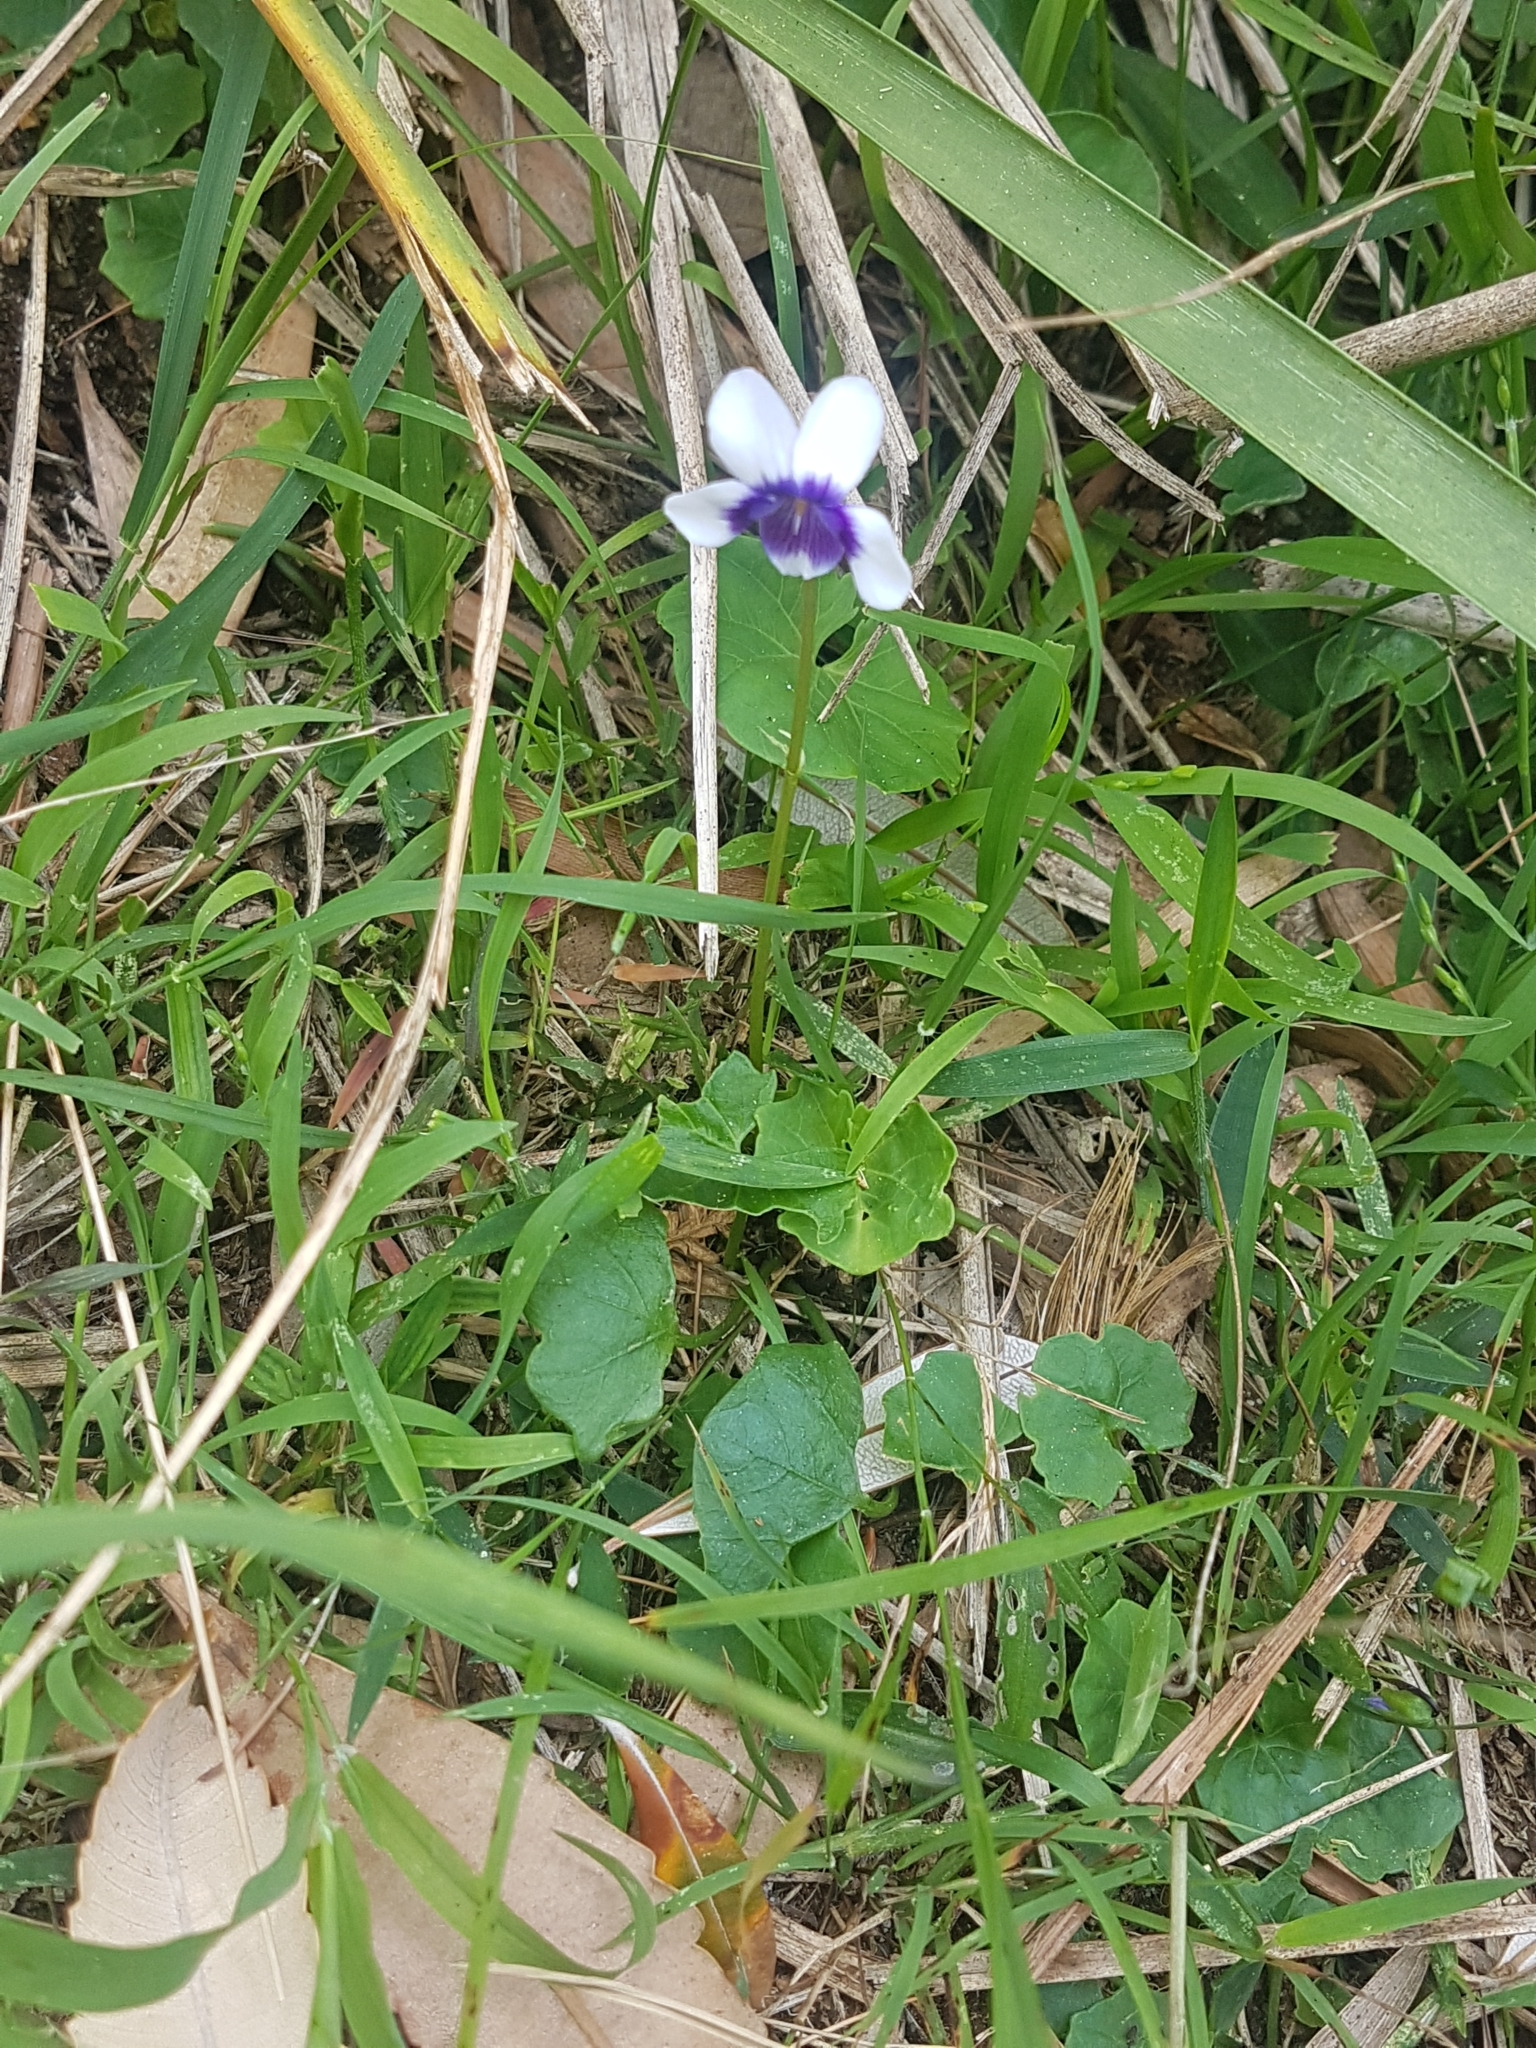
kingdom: Plantae
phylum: Tracheophyta
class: Magnoliopsida
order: Malpighiales
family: Violaceae
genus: Viola
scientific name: Viola banksii
